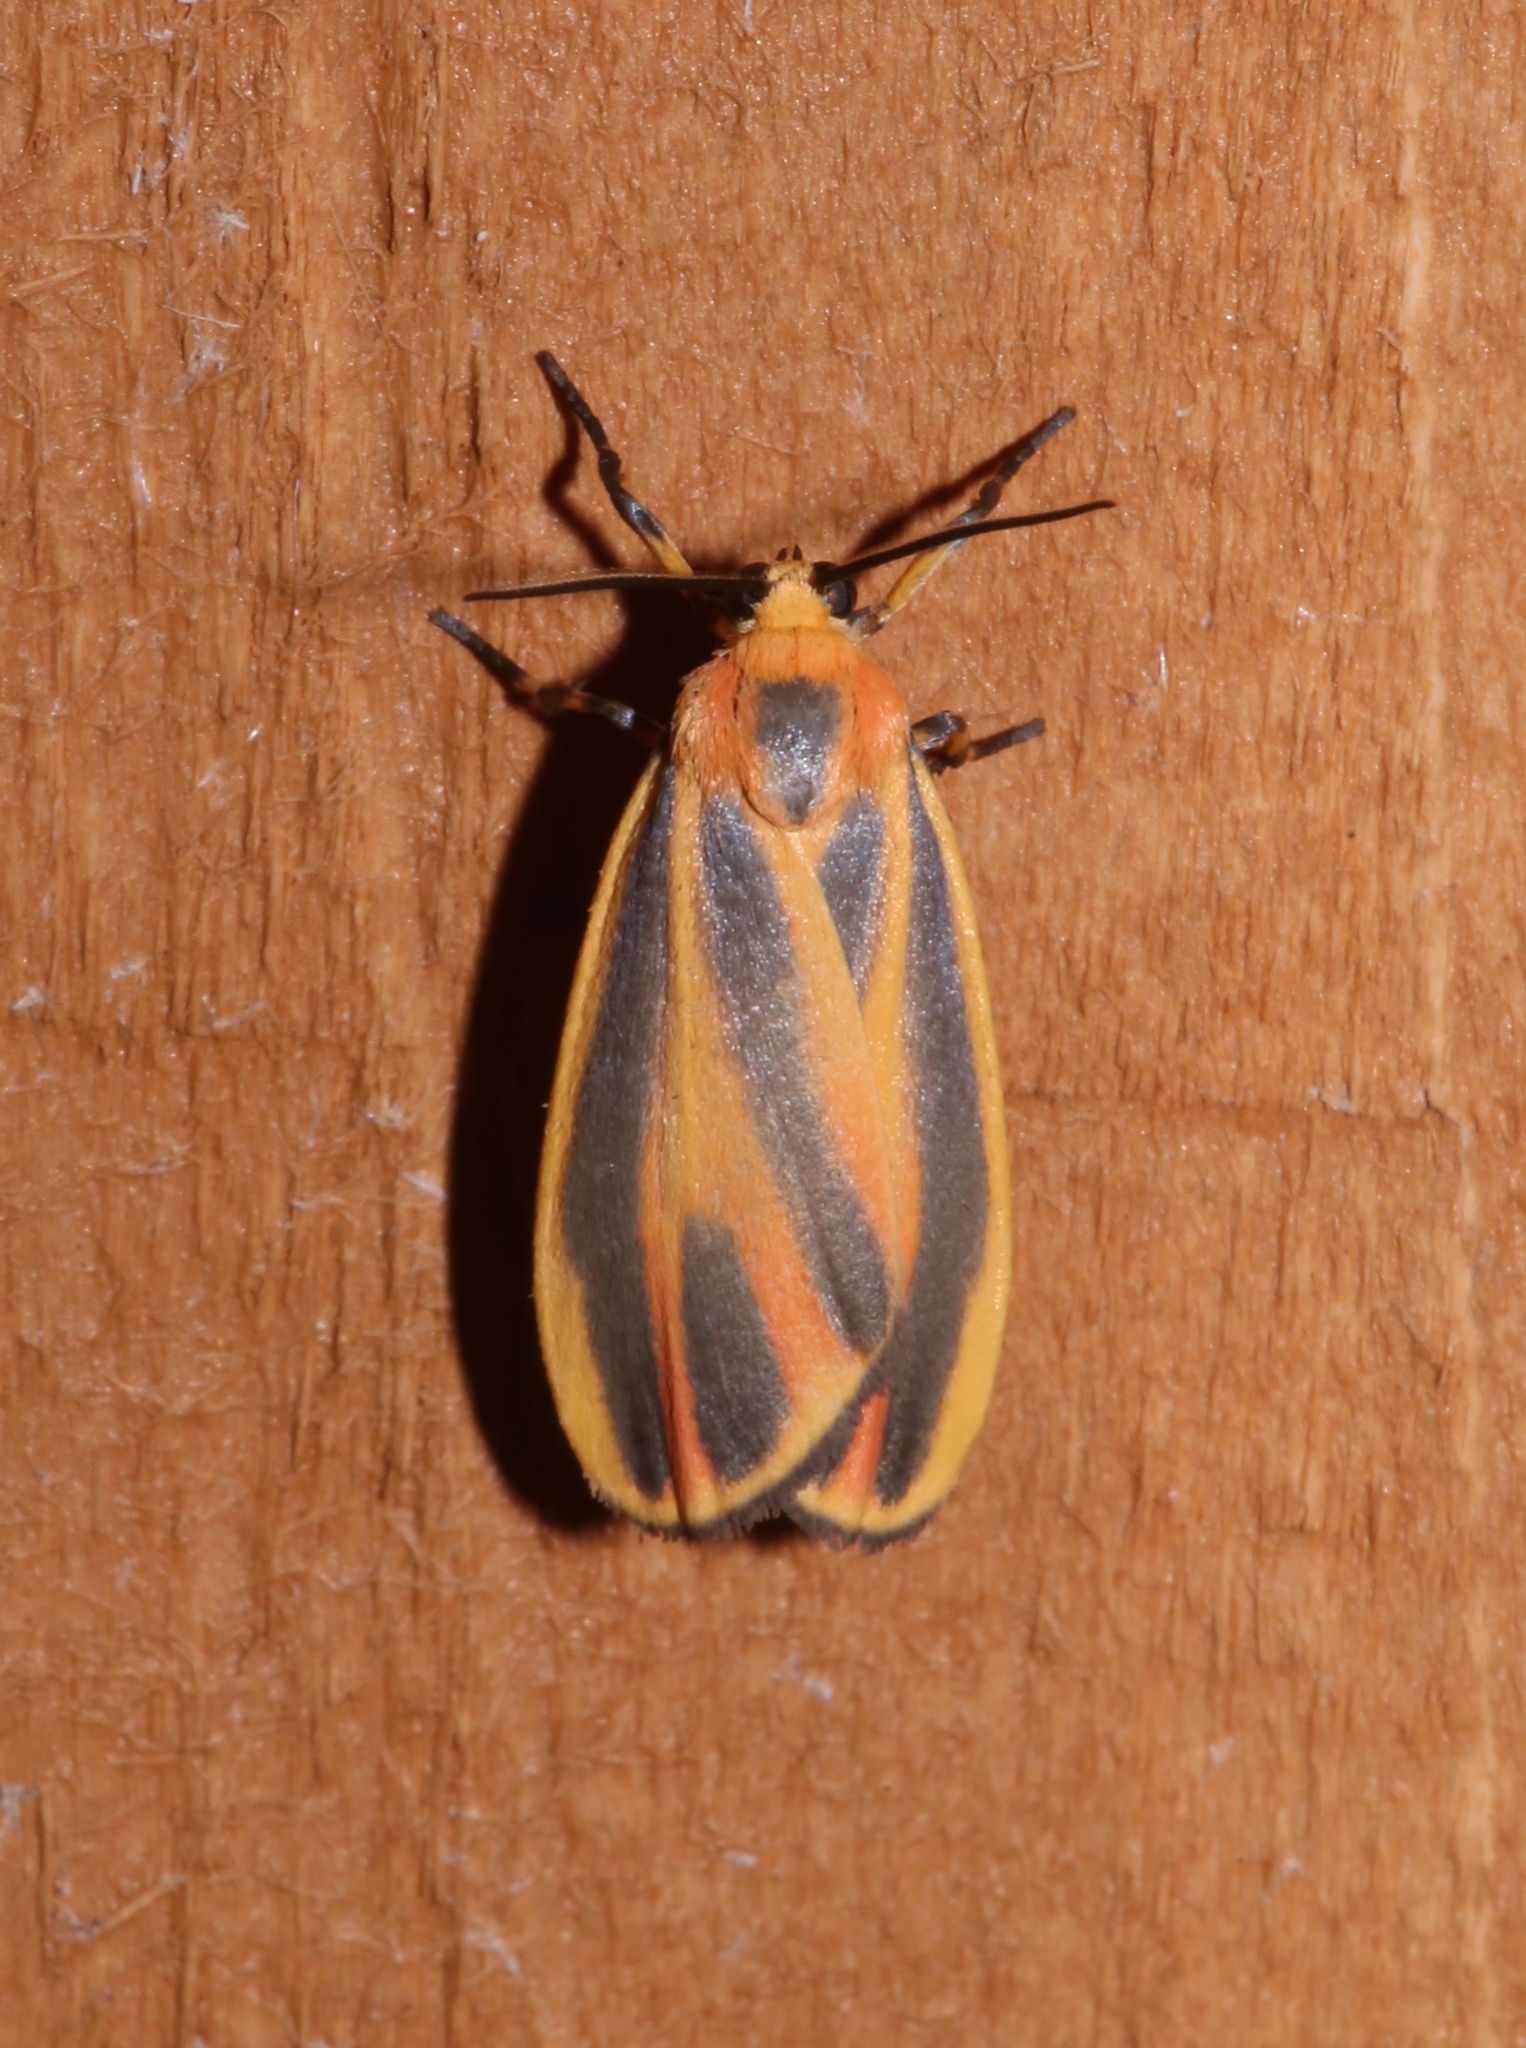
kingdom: Animalia
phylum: Arthropoda
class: Insecta
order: Lepidoptera
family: Erebidae
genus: Hypoprepia
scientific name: Hypoprepia fucosa
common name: Painted lichen moth
